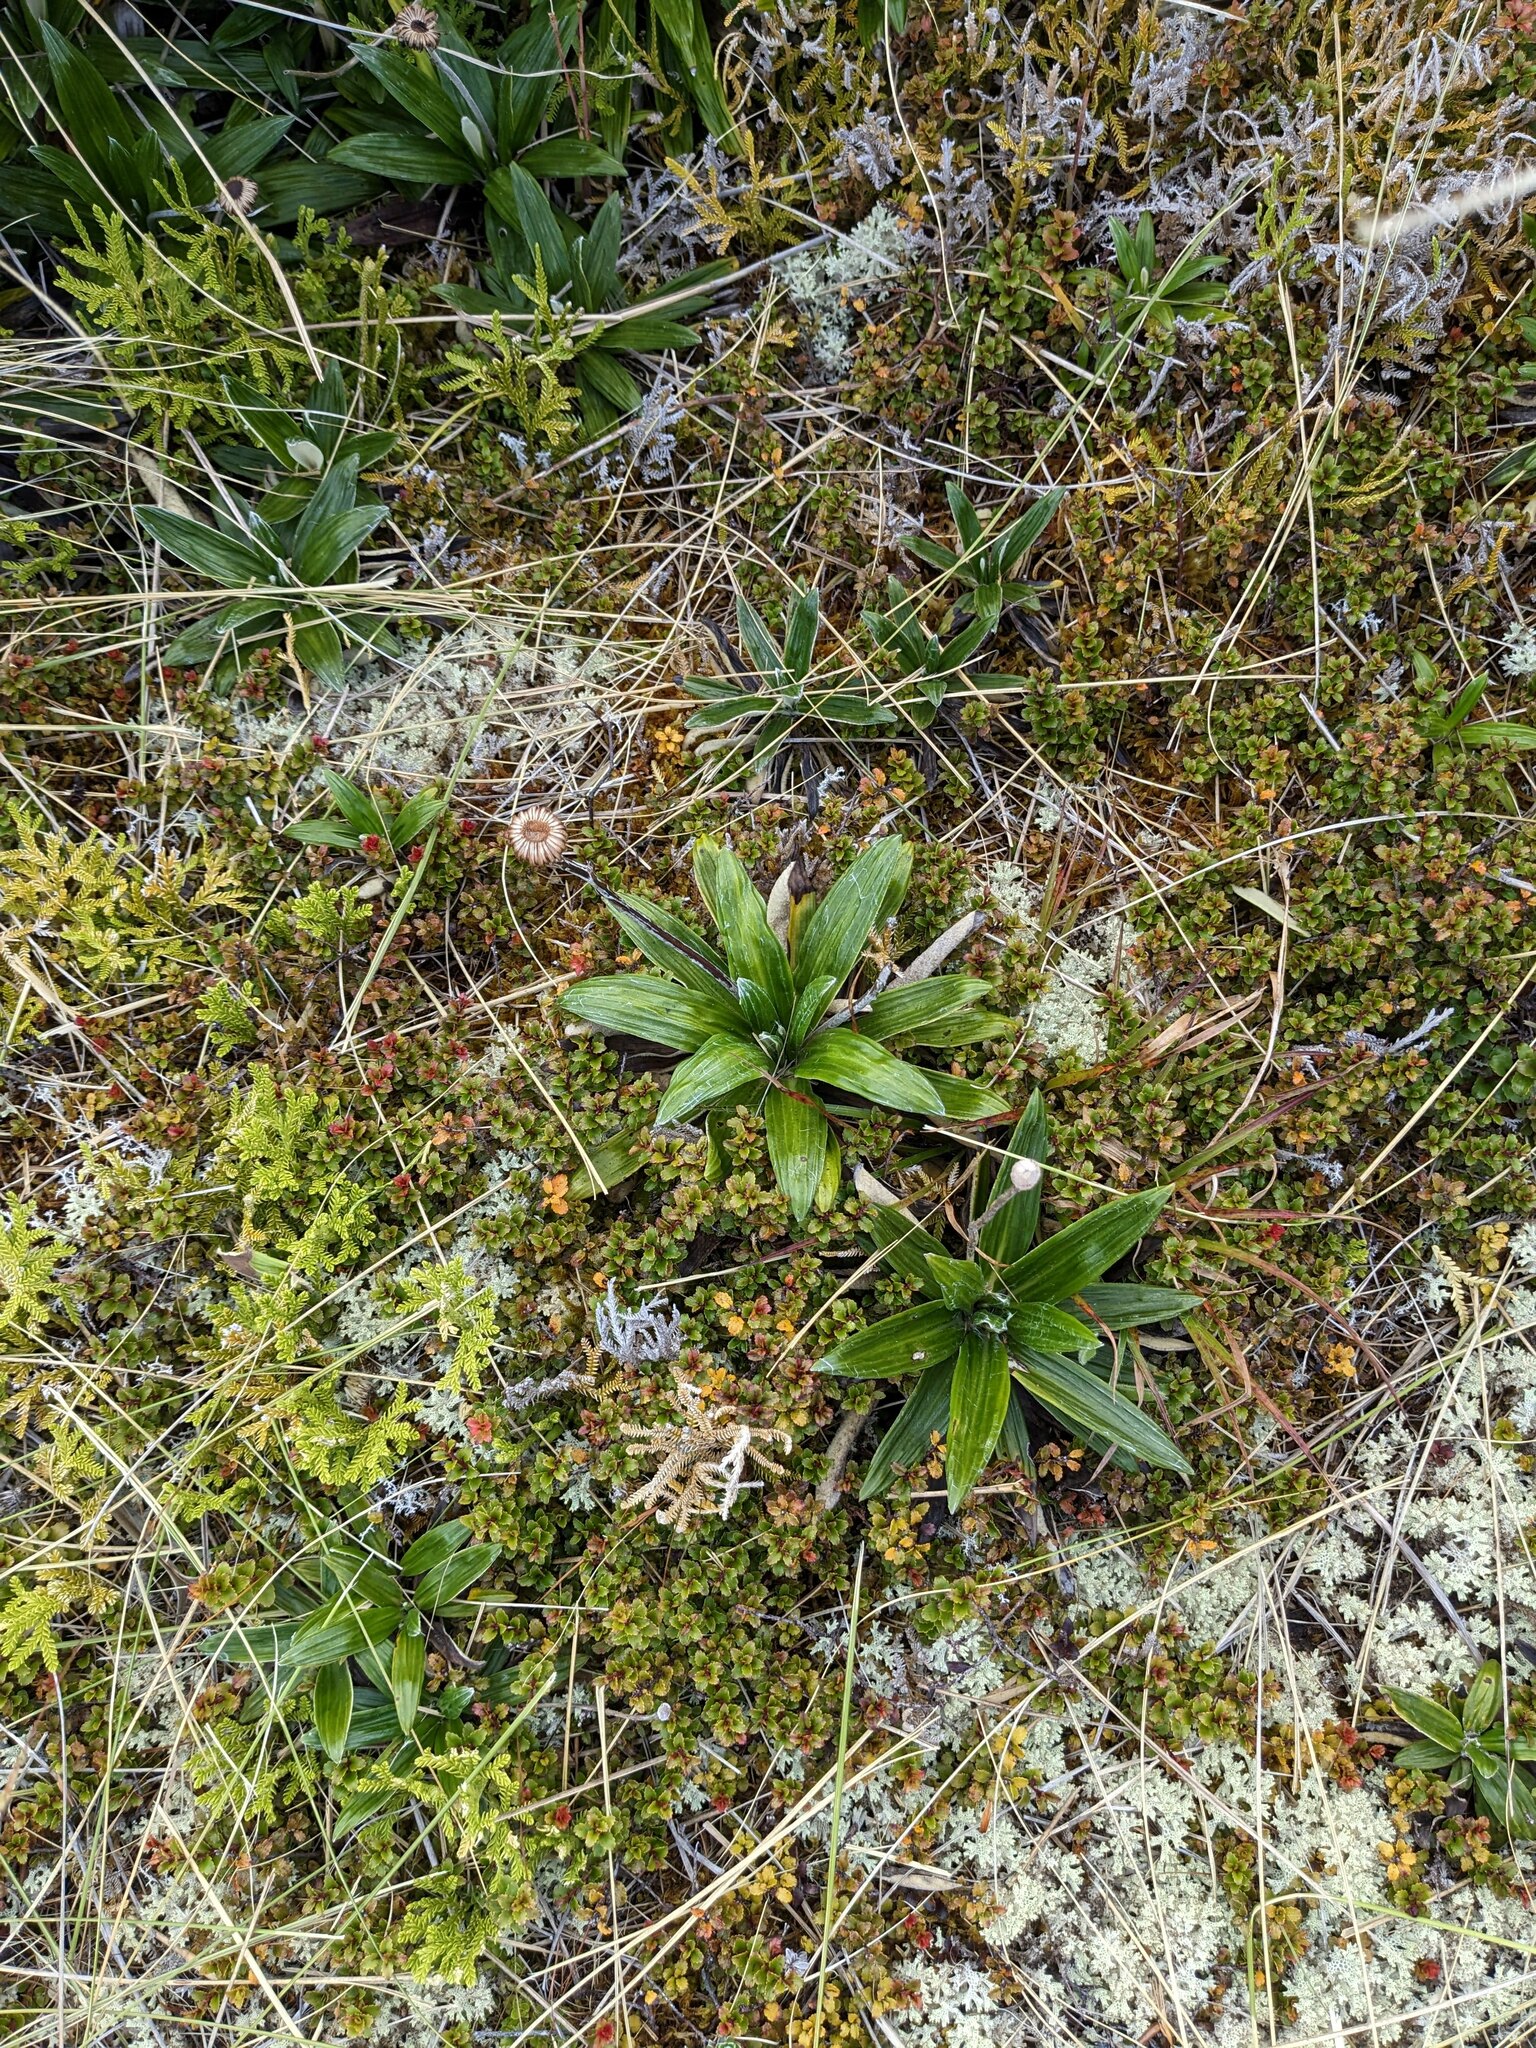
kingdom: Plantae
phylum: Tracheophyta
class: Magnoliopsida
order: Asterales
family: Asteraceae
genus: Celmisia
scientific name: Celmisia spectabilis
